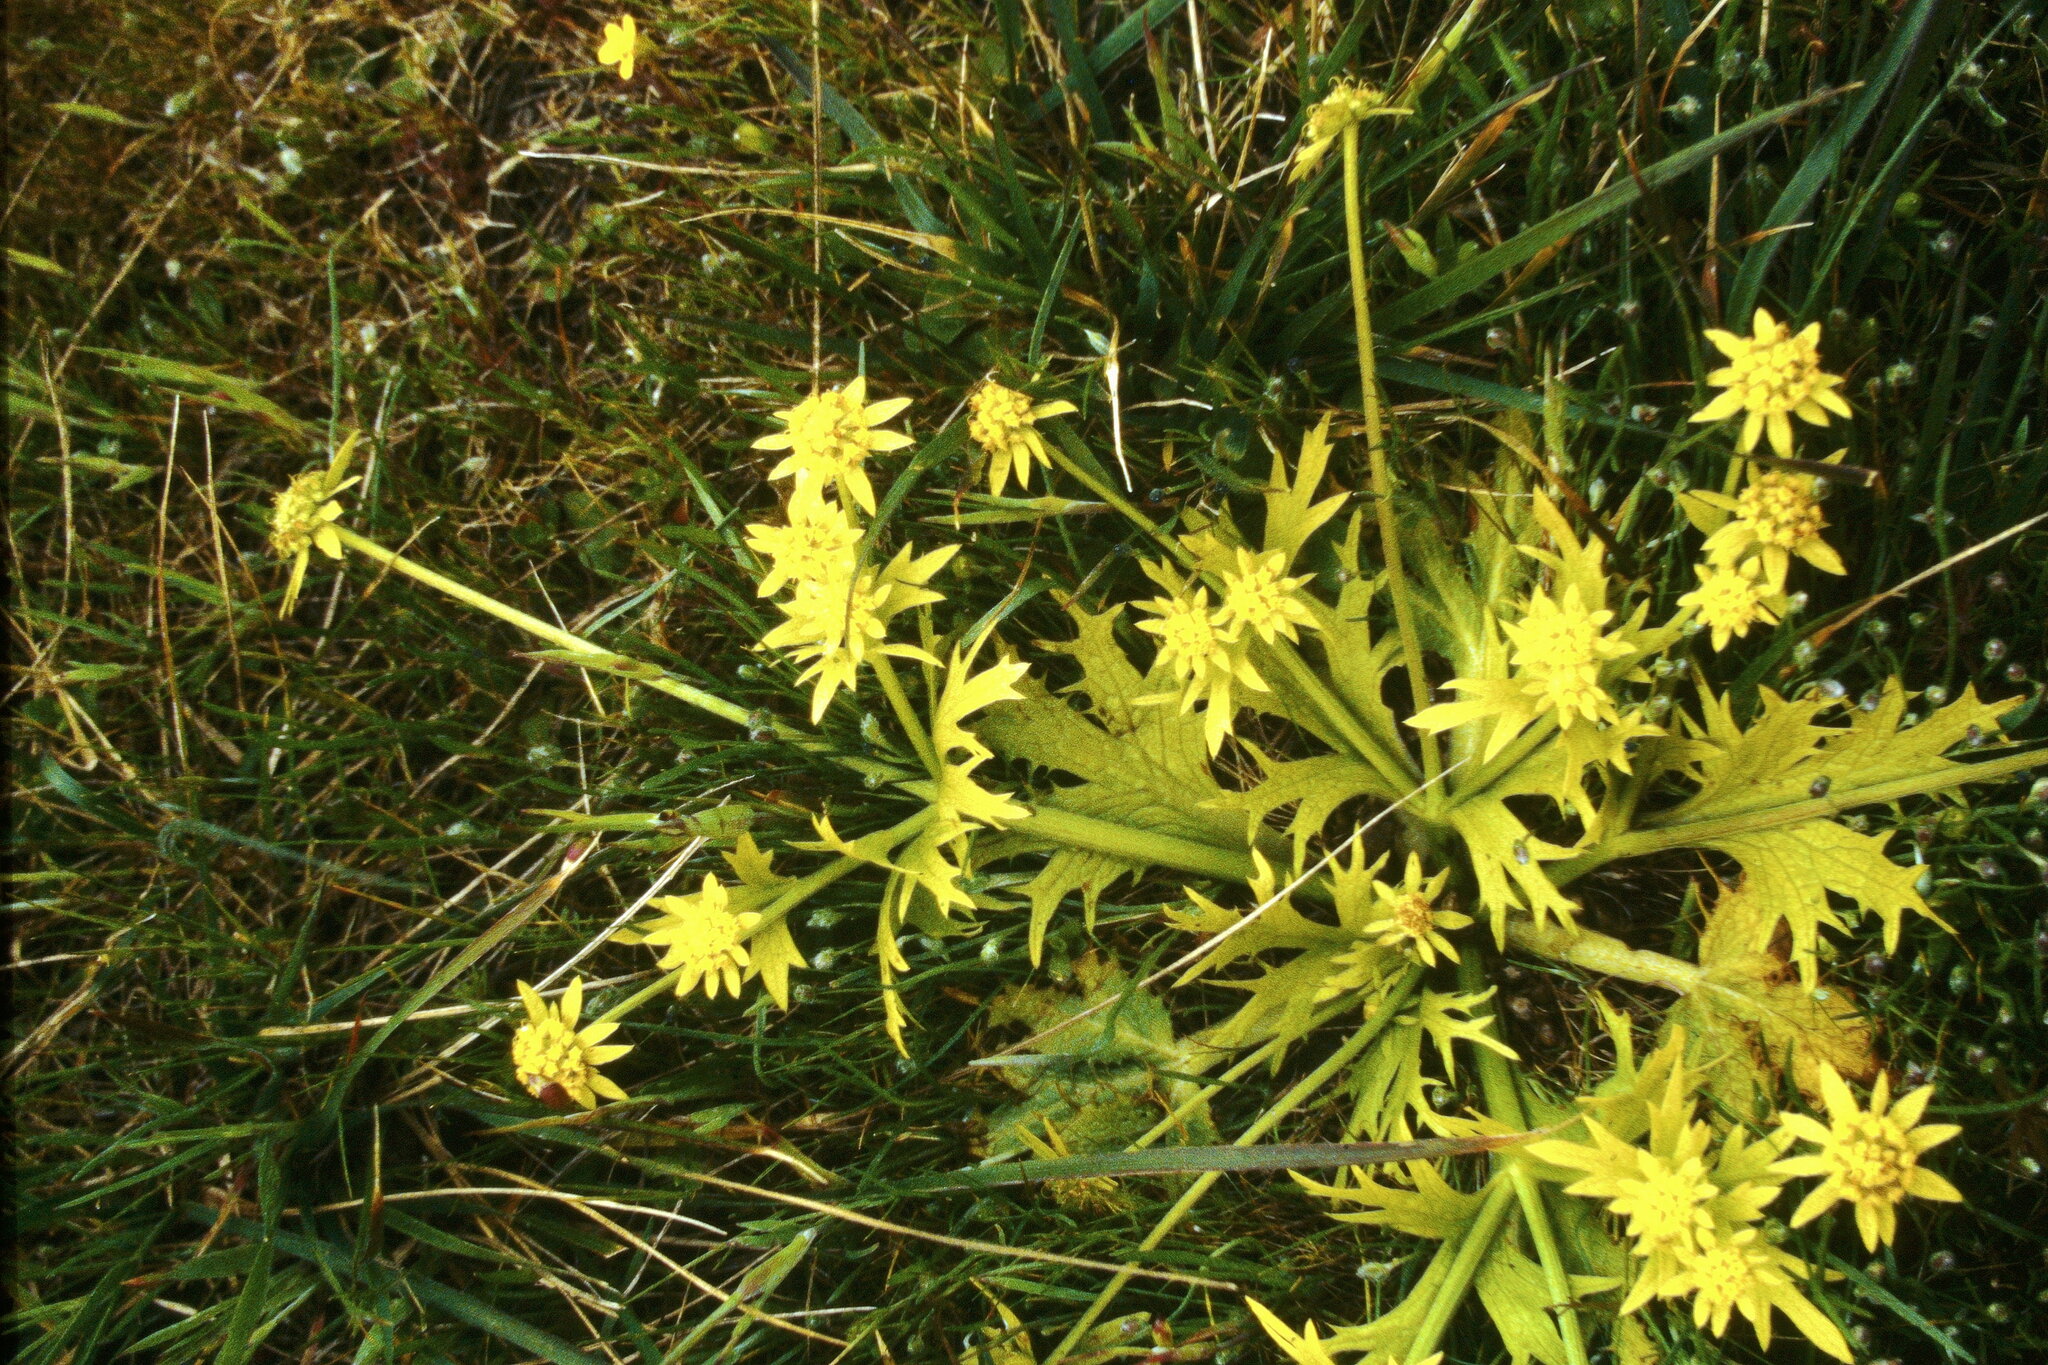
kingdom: Plantae
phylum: Tracheophyta
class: Magnoliopsida
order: Apiales
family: Apiaceae
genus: Sanicula
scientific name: Sanicula arctopoides
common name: Footsteps-of-spring
